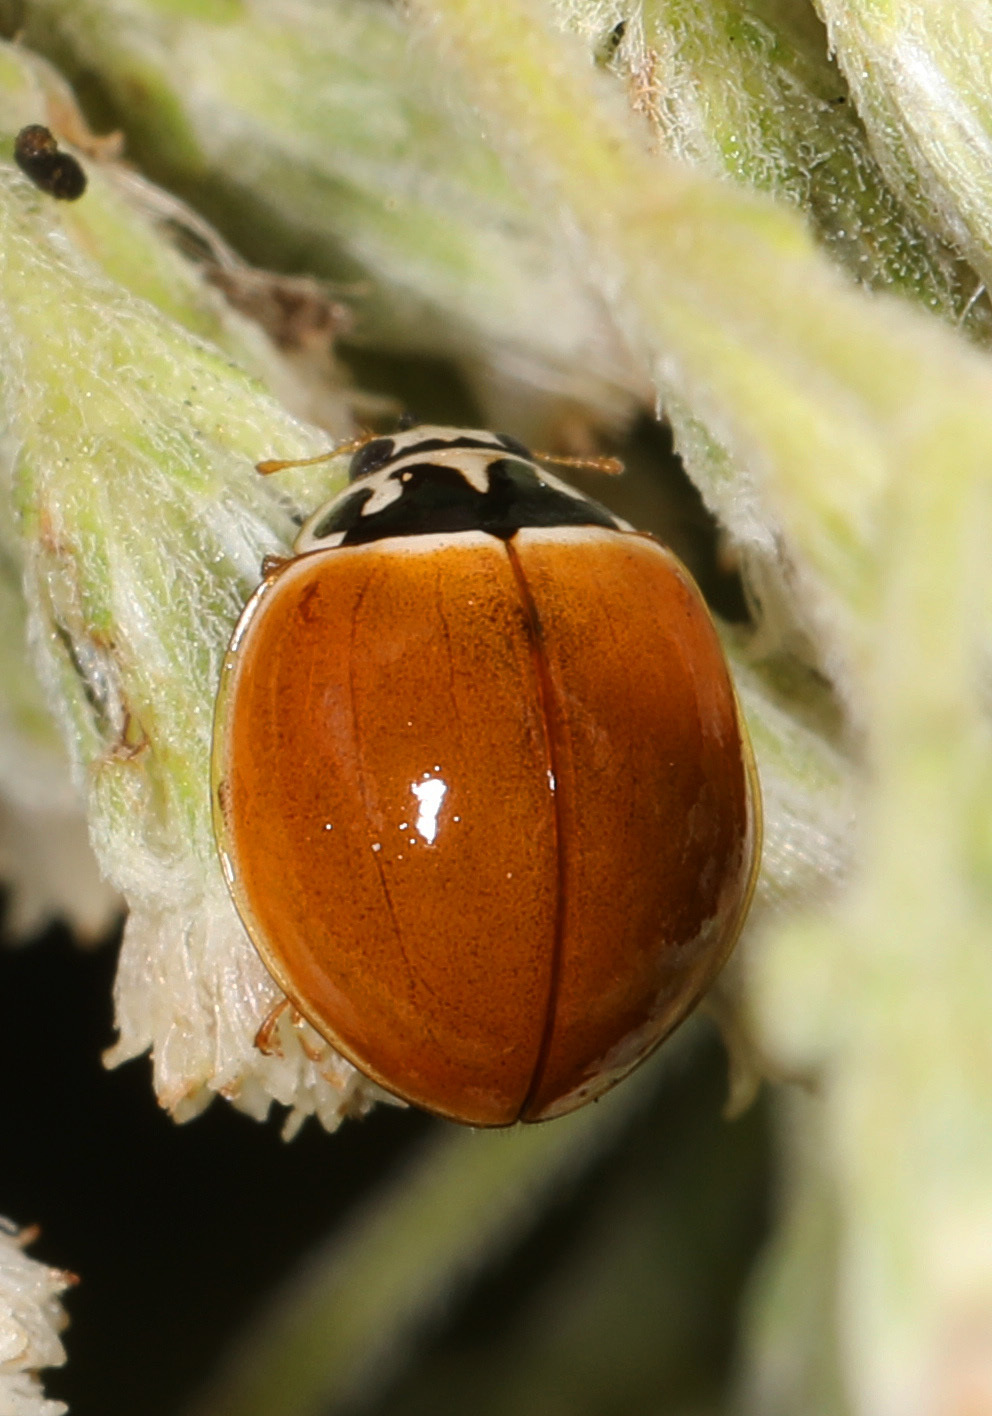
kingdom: Animalia
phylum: Arthropoda
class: Insecta
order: Coleoptera
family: Coccinellidae
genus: Cycloneda
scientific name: Cycloneda munda
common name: Polished lady beetle
